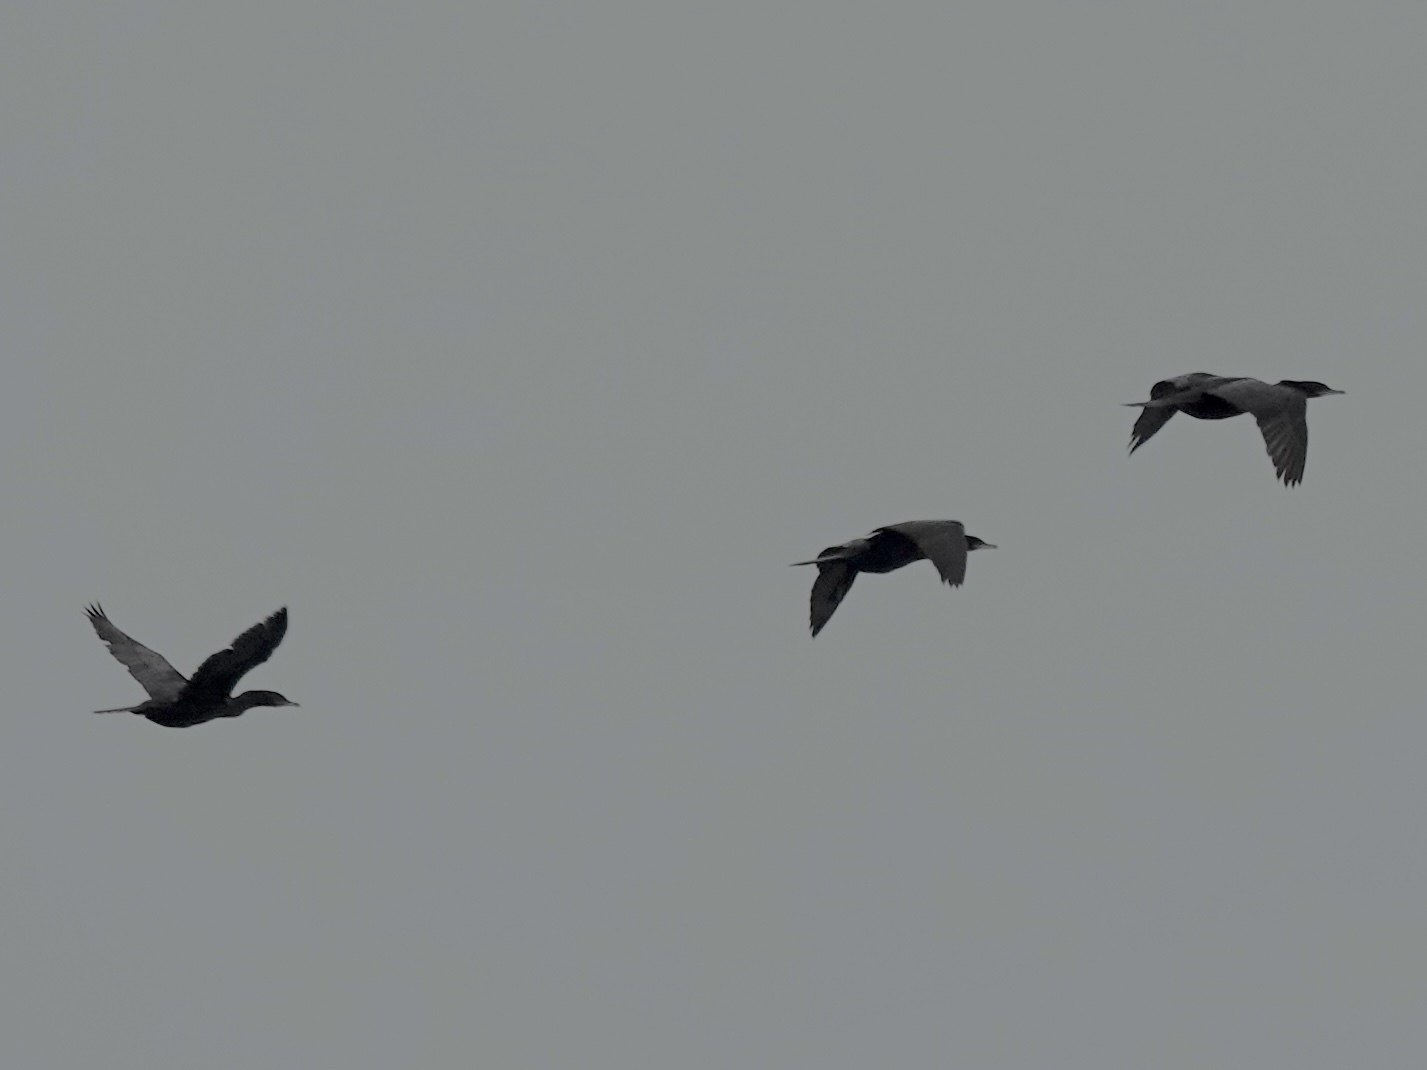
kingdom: Animalia
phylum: Chordata
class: Aves
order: Suliformes
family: Phalacrocoracidae
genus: Phalacrocorax
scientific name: Phalacrocorax auritus
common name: Double-crested cormorant
